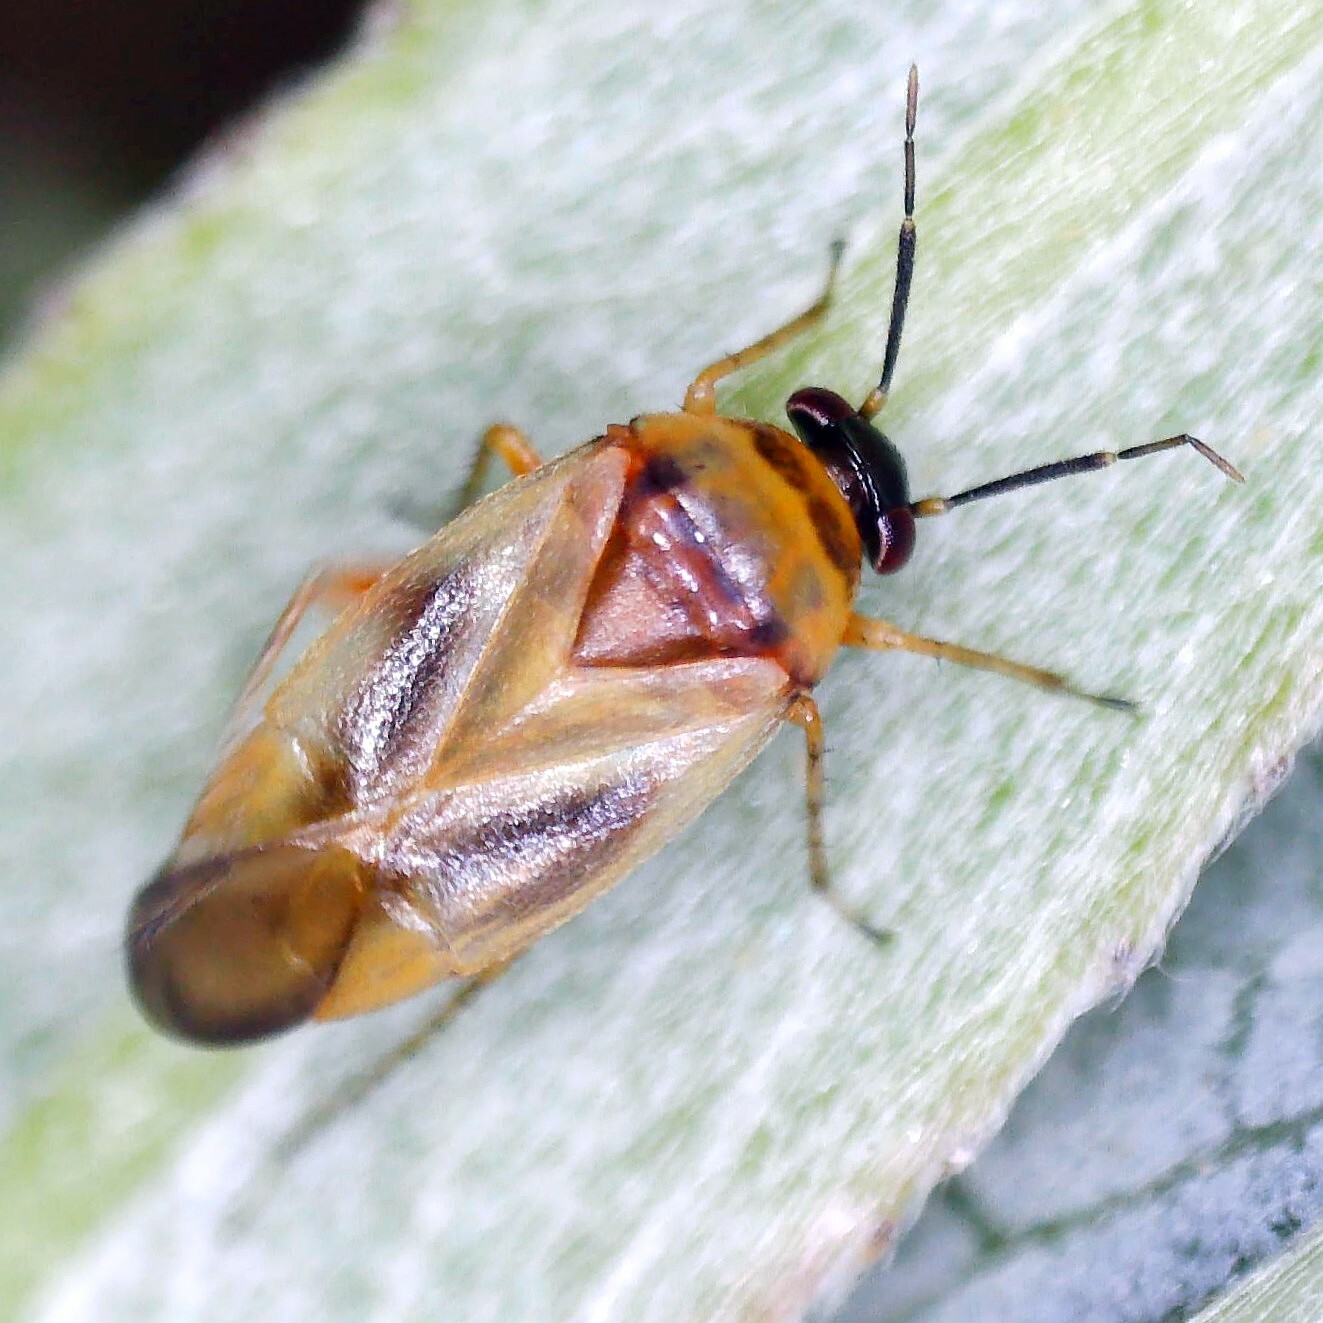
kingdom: Animalia
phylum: Arthropoda
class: Insecta
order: Hemiptera
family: Miridae
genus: Salicarus
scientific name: Salicarus roseri
